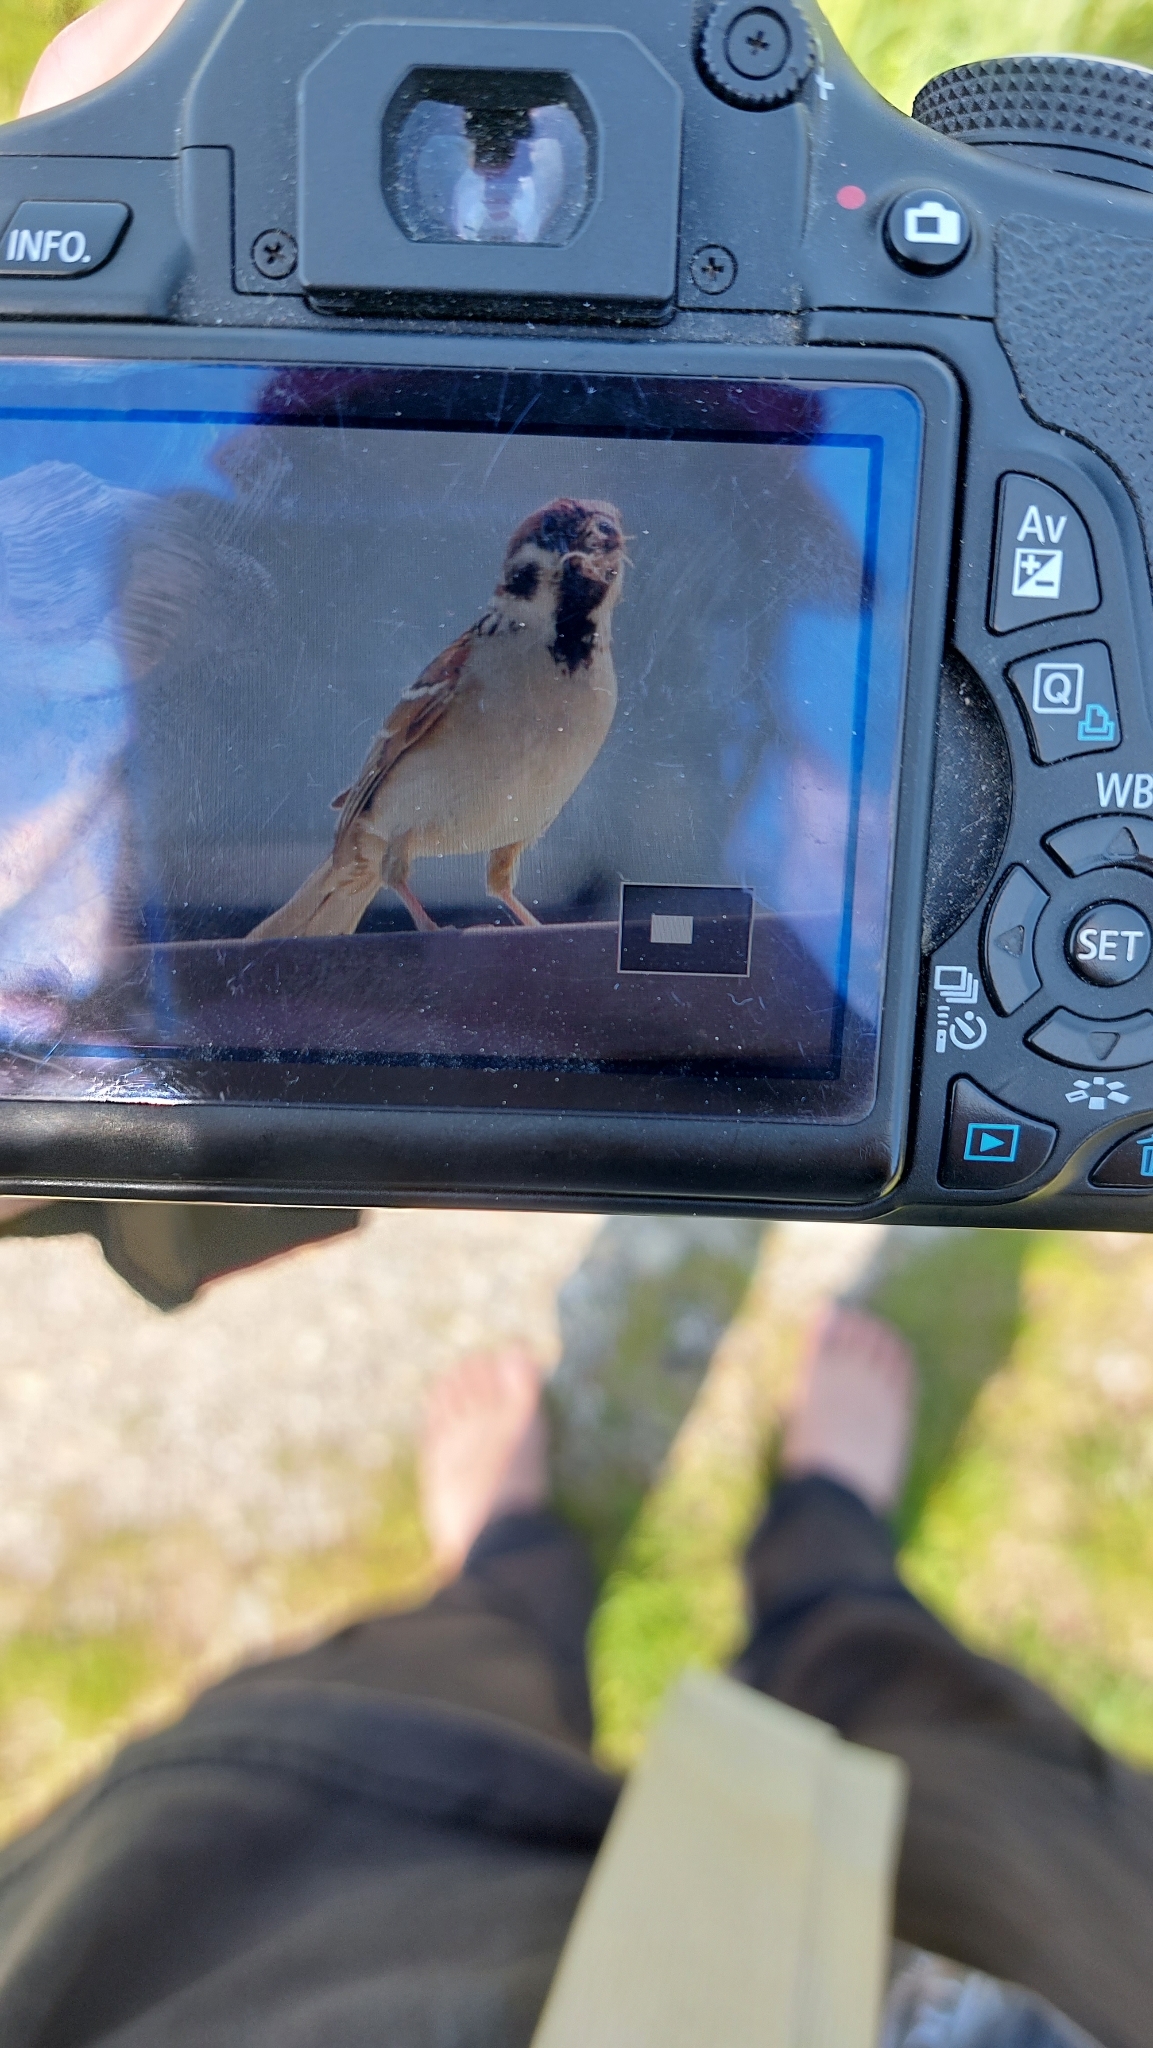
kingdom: Animalia
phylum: Chordata
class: Aves
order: Passeriformes
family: Passeridae
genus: Passer
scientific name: Passer montanus
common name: Eurasian tree sparrow
